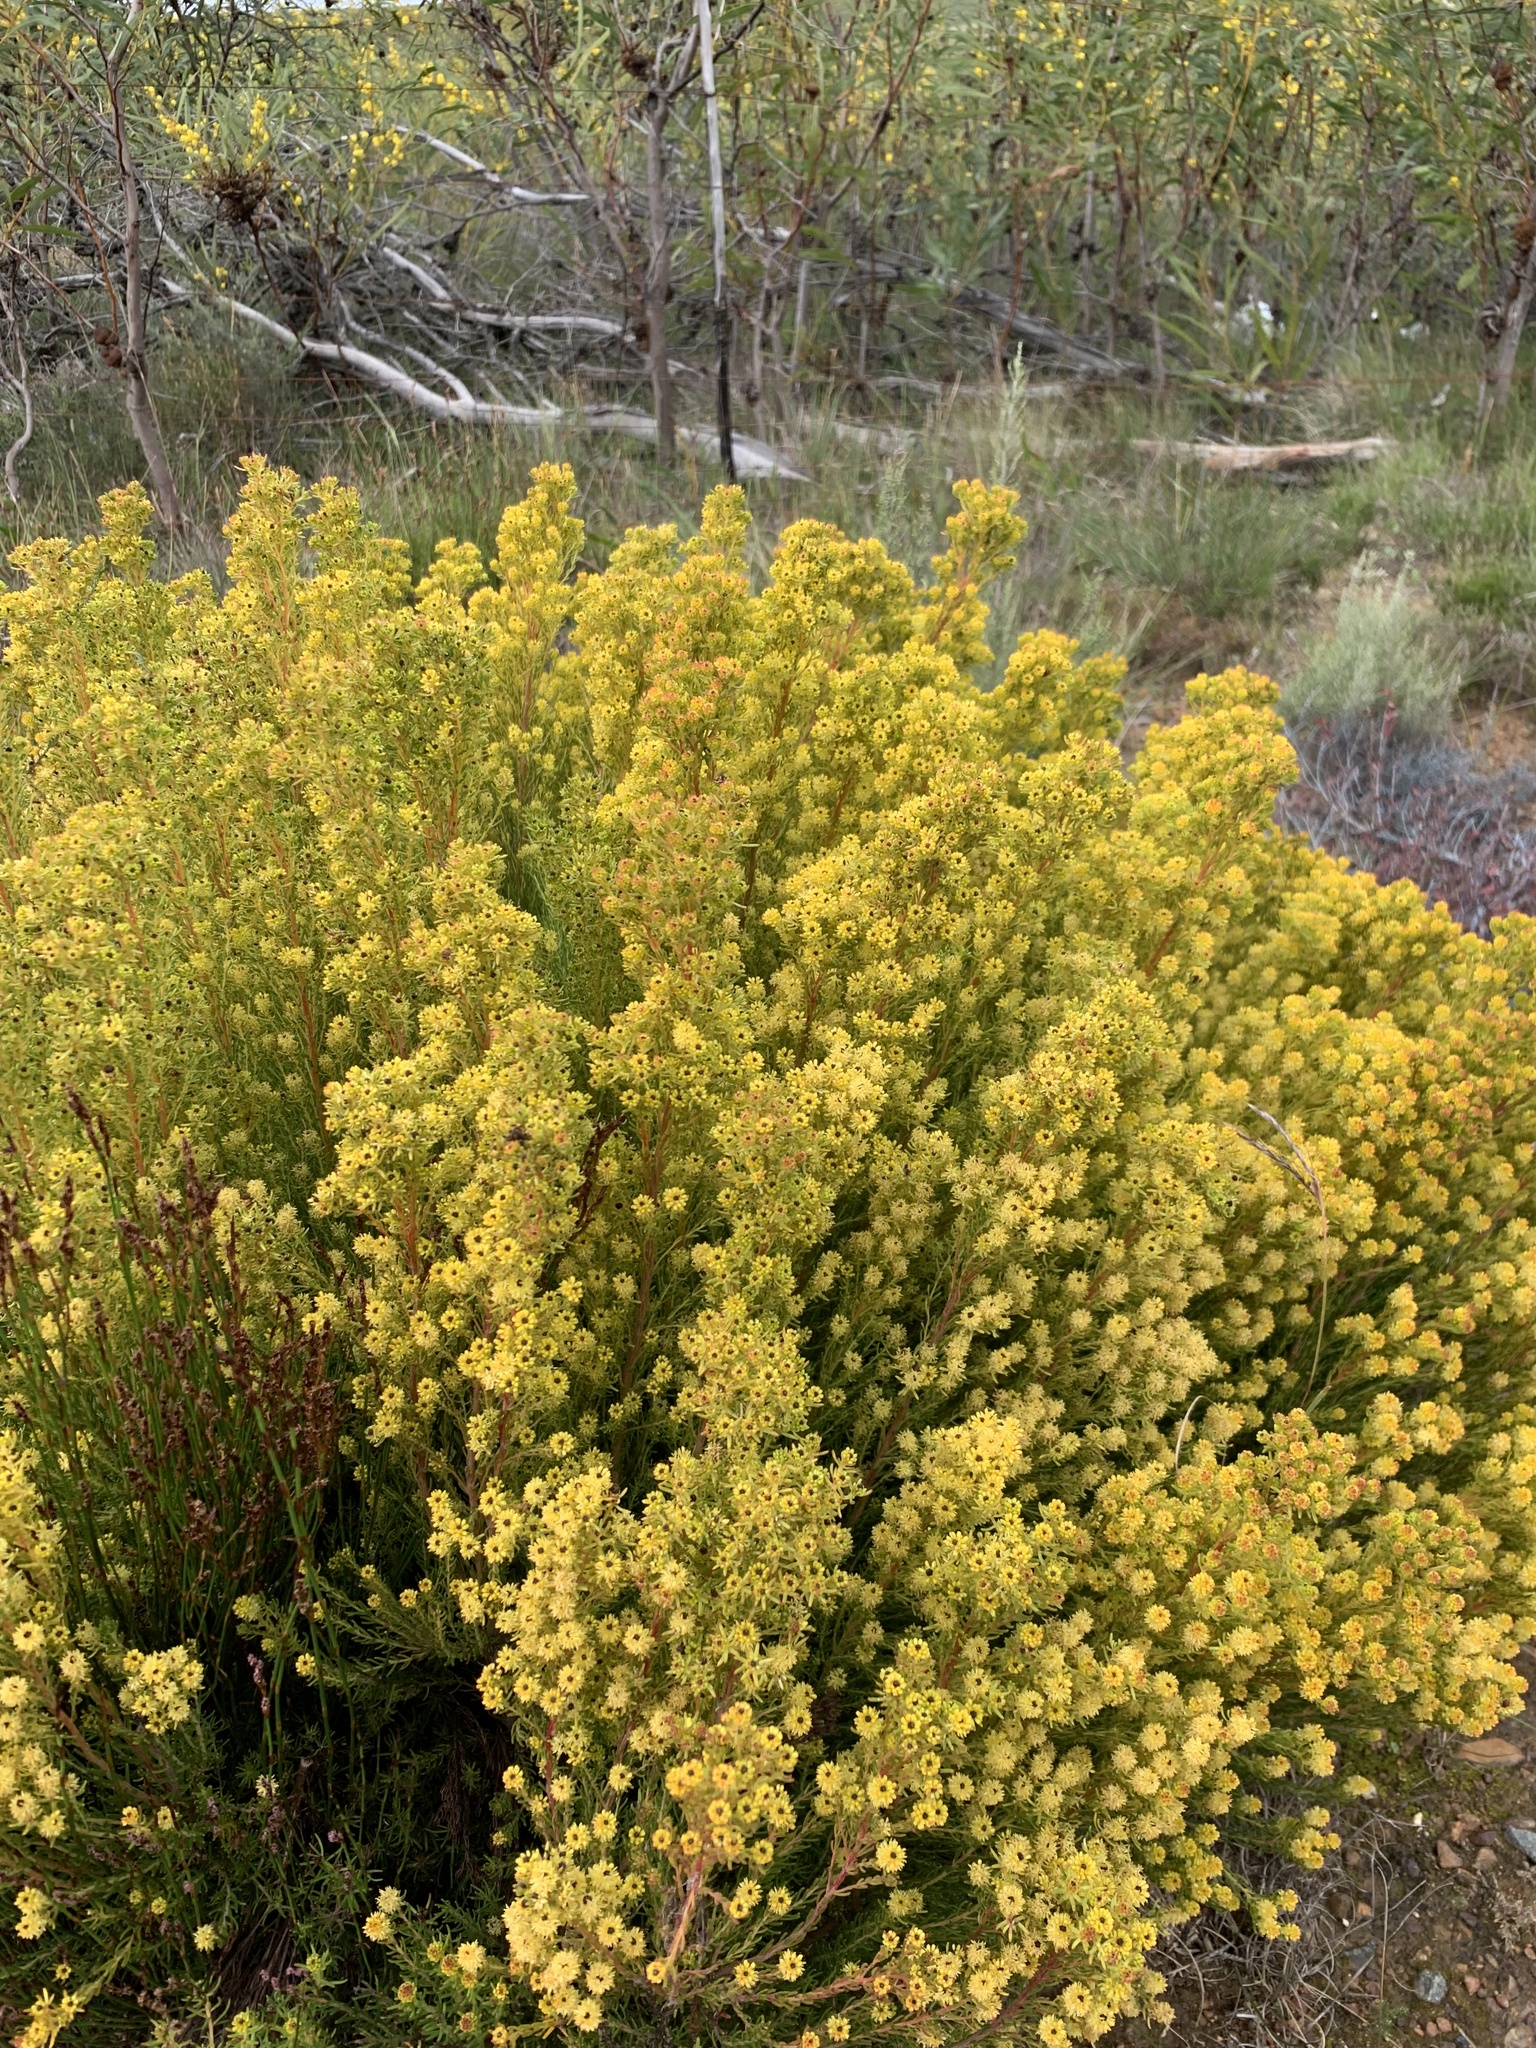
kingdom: Plantae
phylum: Tracheophyta
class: Magnoliopsida
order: Proteales
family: Proteaceae
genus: Leucadendron
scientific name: Leucadendron linifolium
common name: Line-leaf conebush
